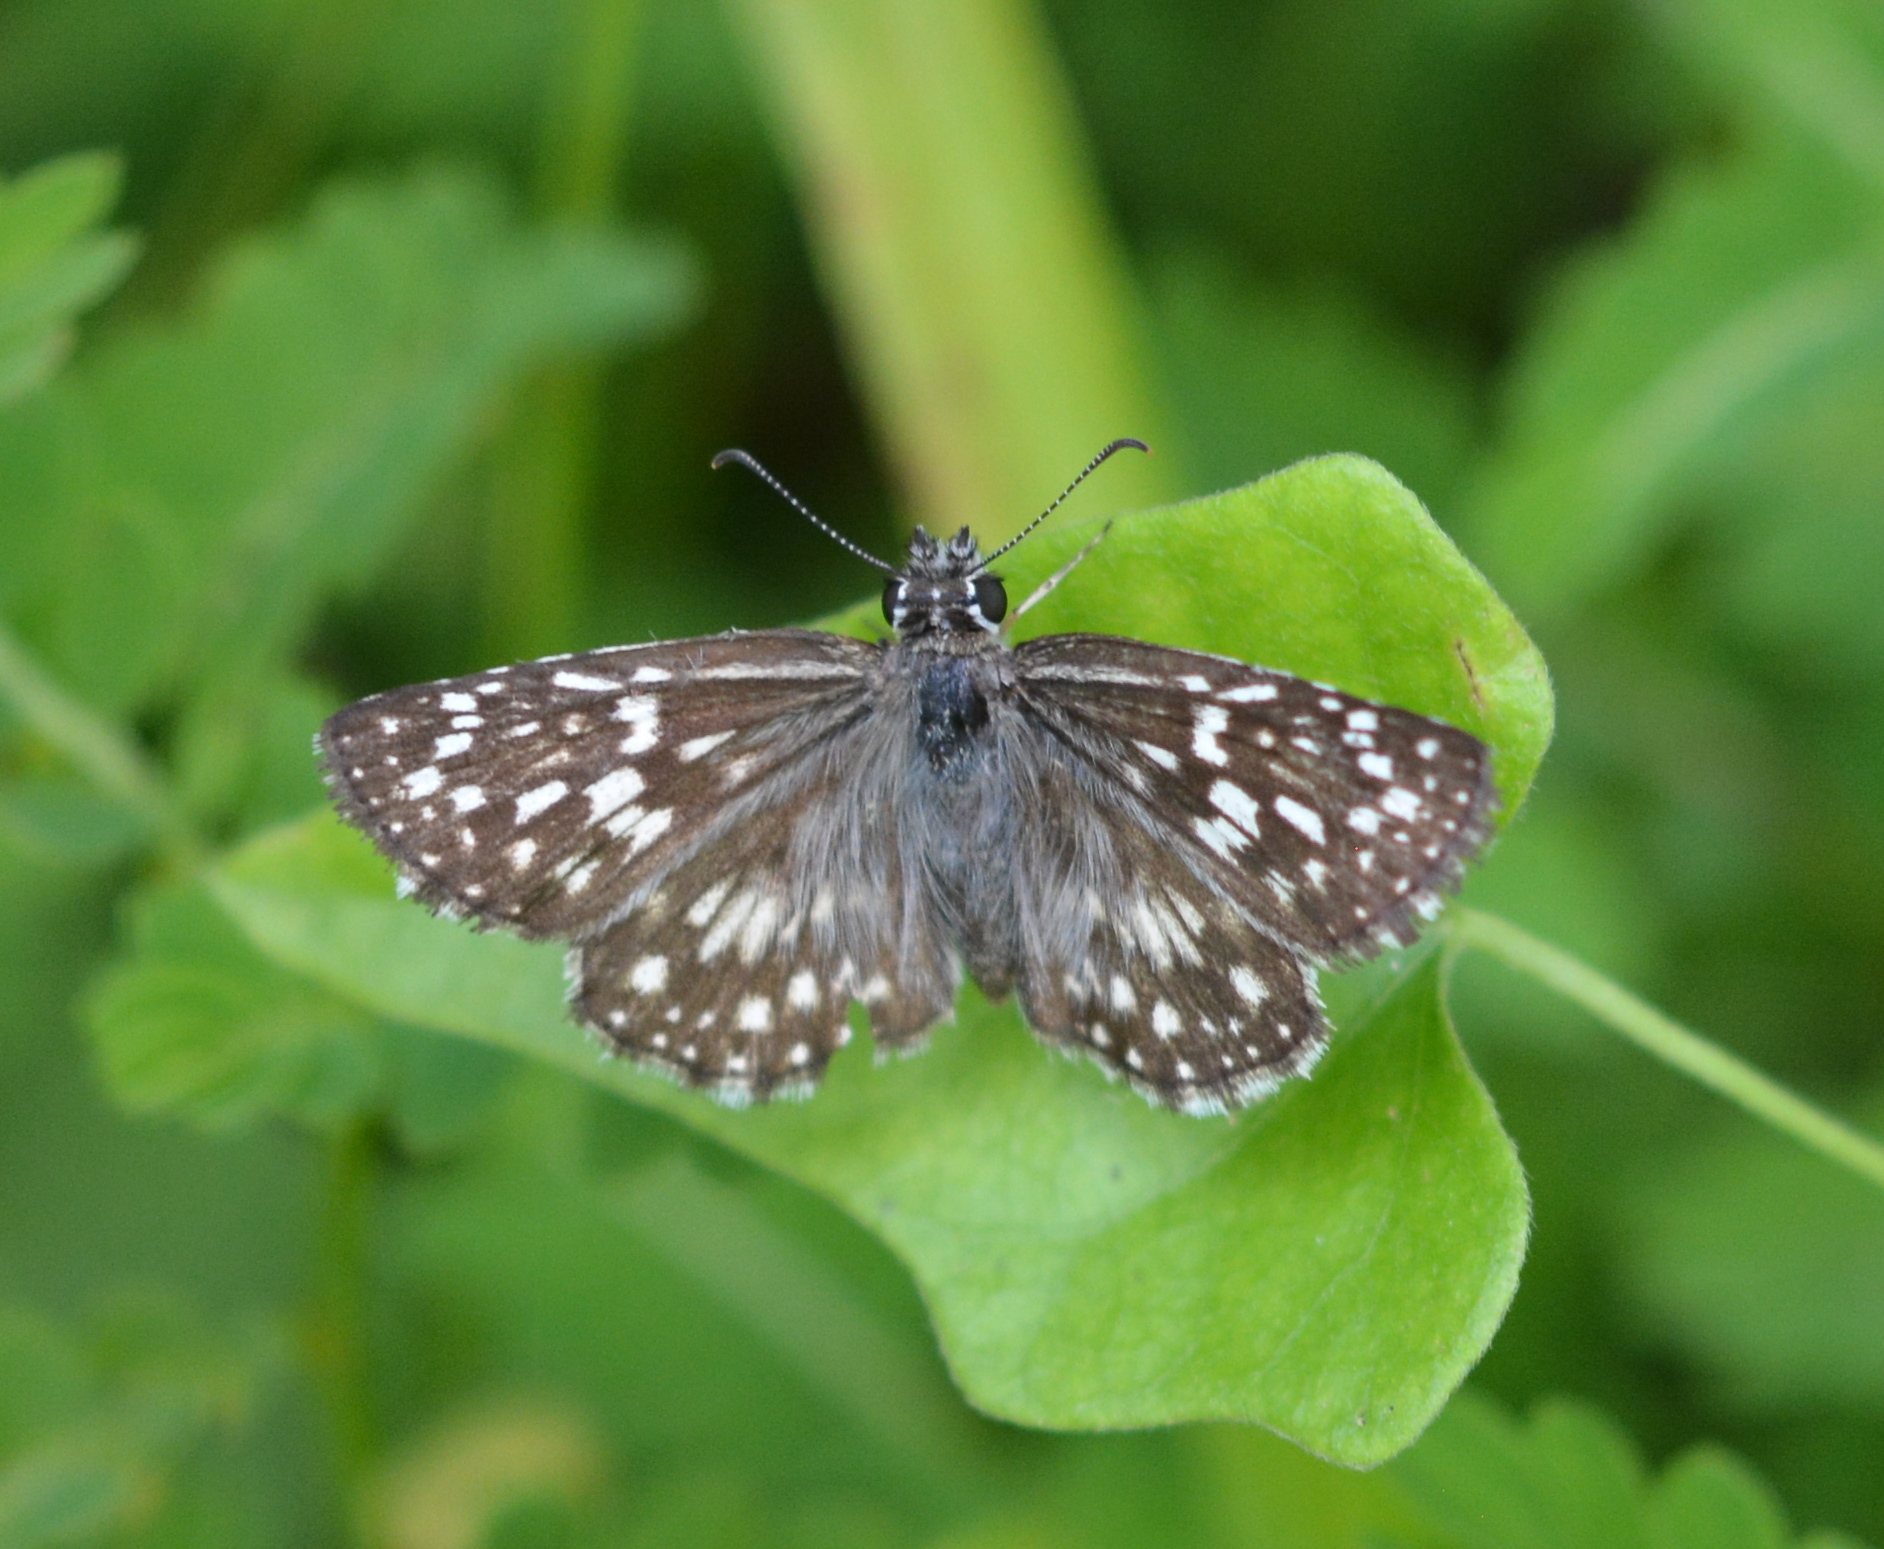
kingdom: Animalia
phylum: Arthropoda
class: Insecta
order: Lepidoptera
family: Hesperiidae
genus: Pyrgus
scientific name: Pyrgus oileus
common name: Tropical checkered-skipper
